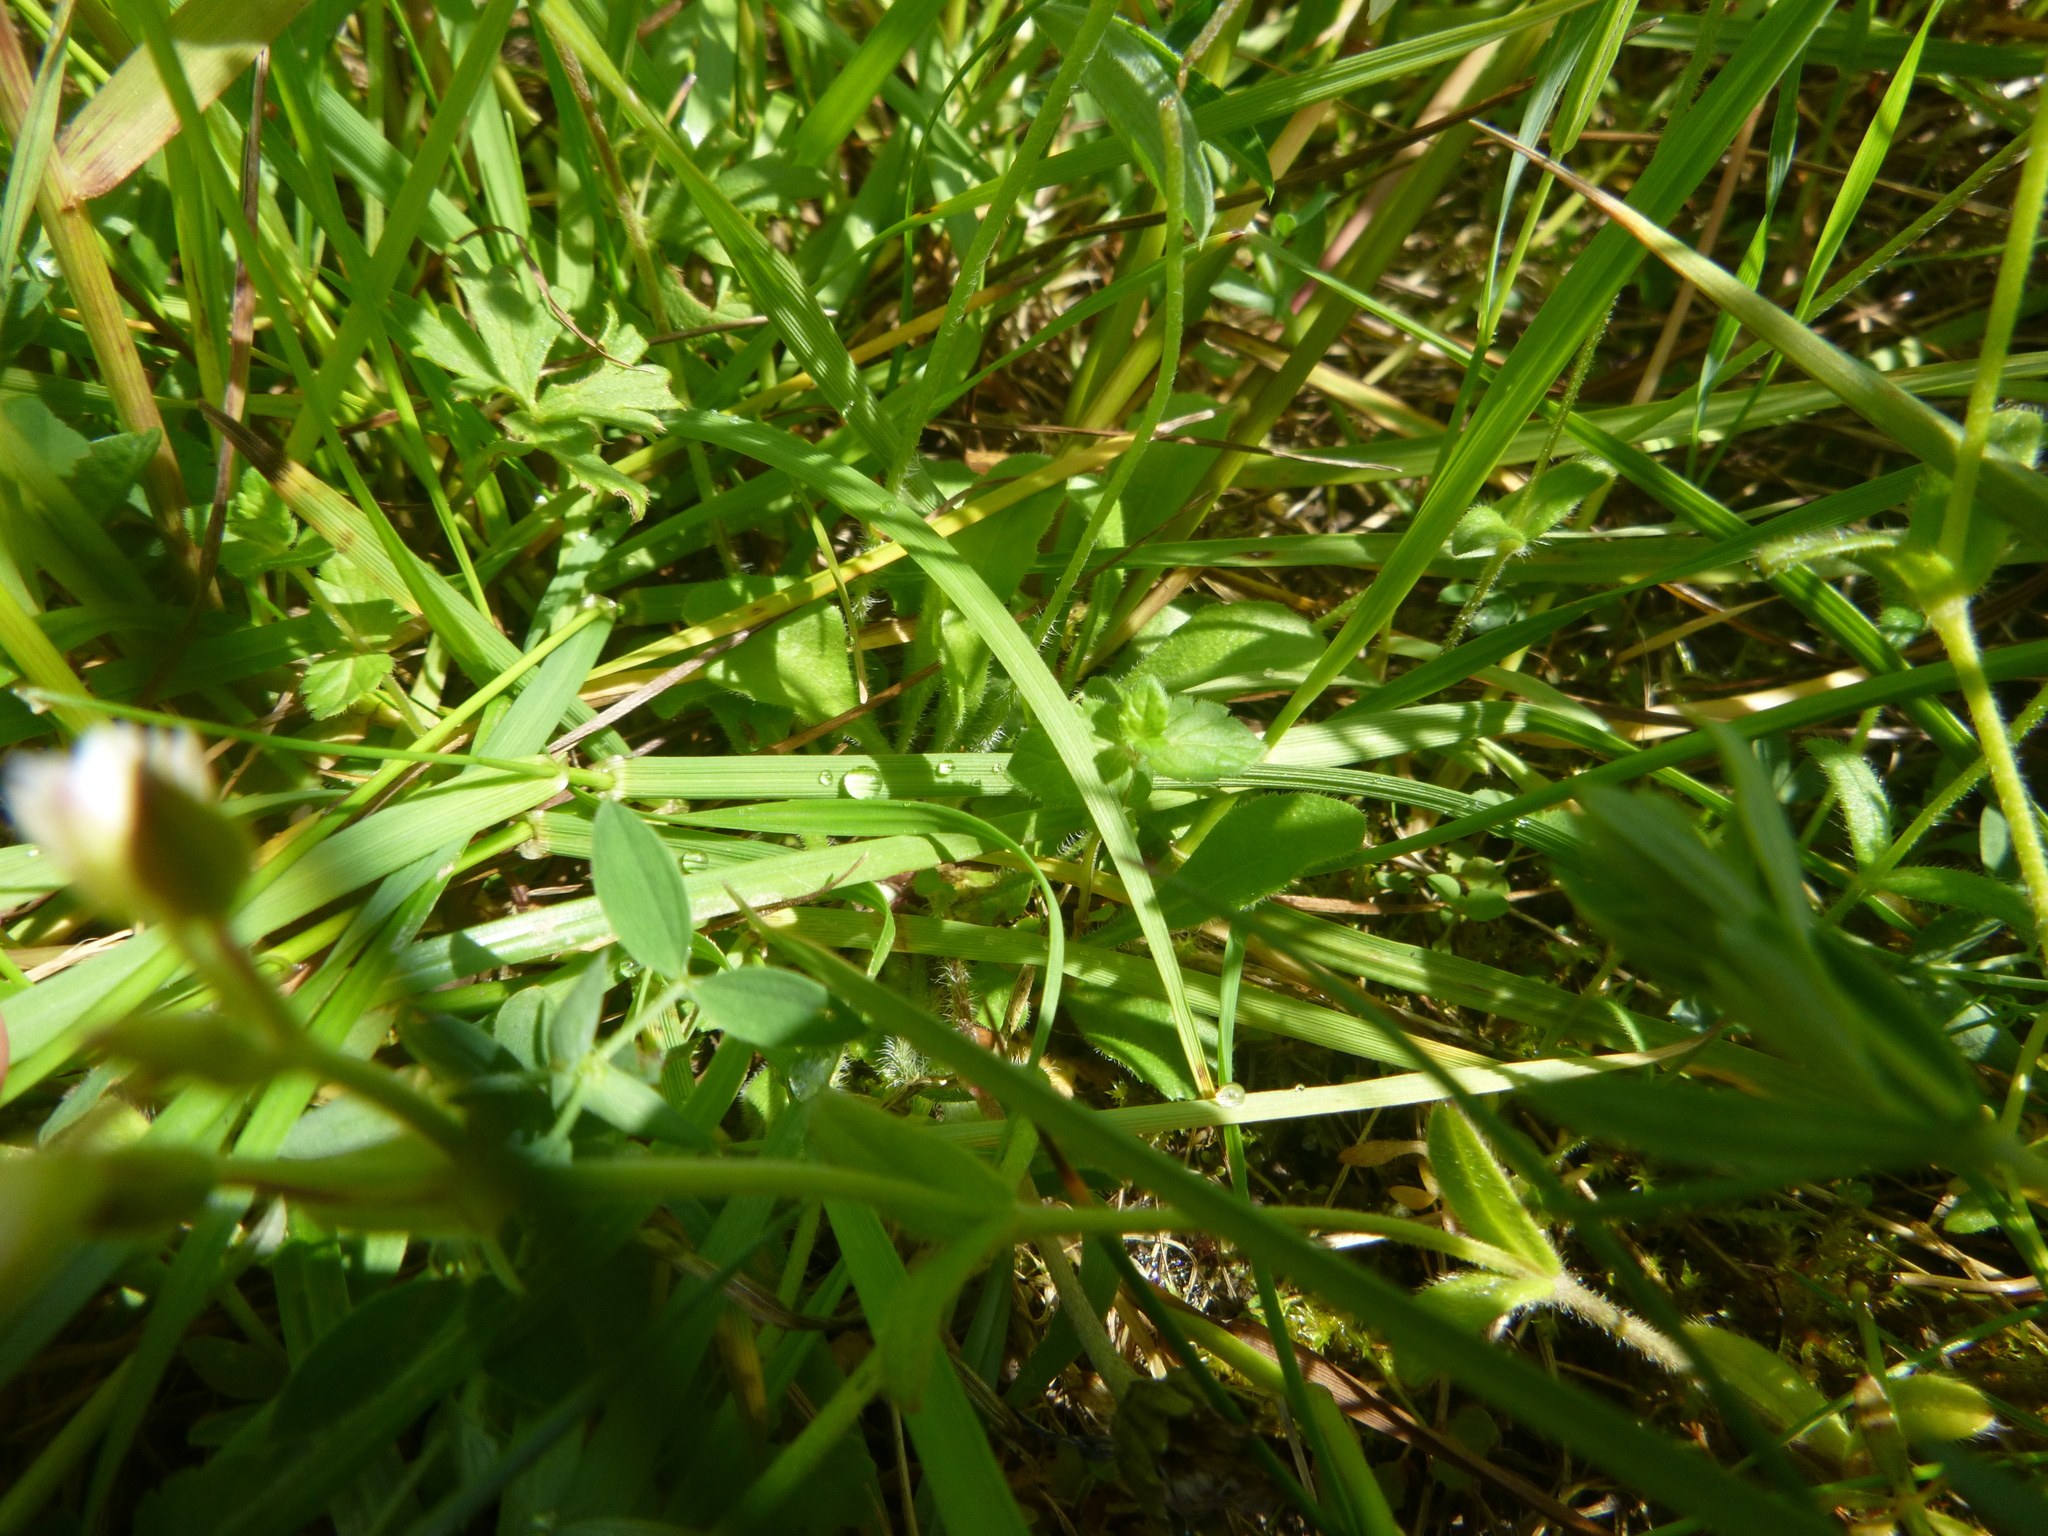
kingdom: Plantae
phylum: Tracheophyta
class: Magnoliopsida
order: Asterales
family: Asteraceae
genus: Bellis
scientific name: Bellis perennis
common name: Lawndaisy
